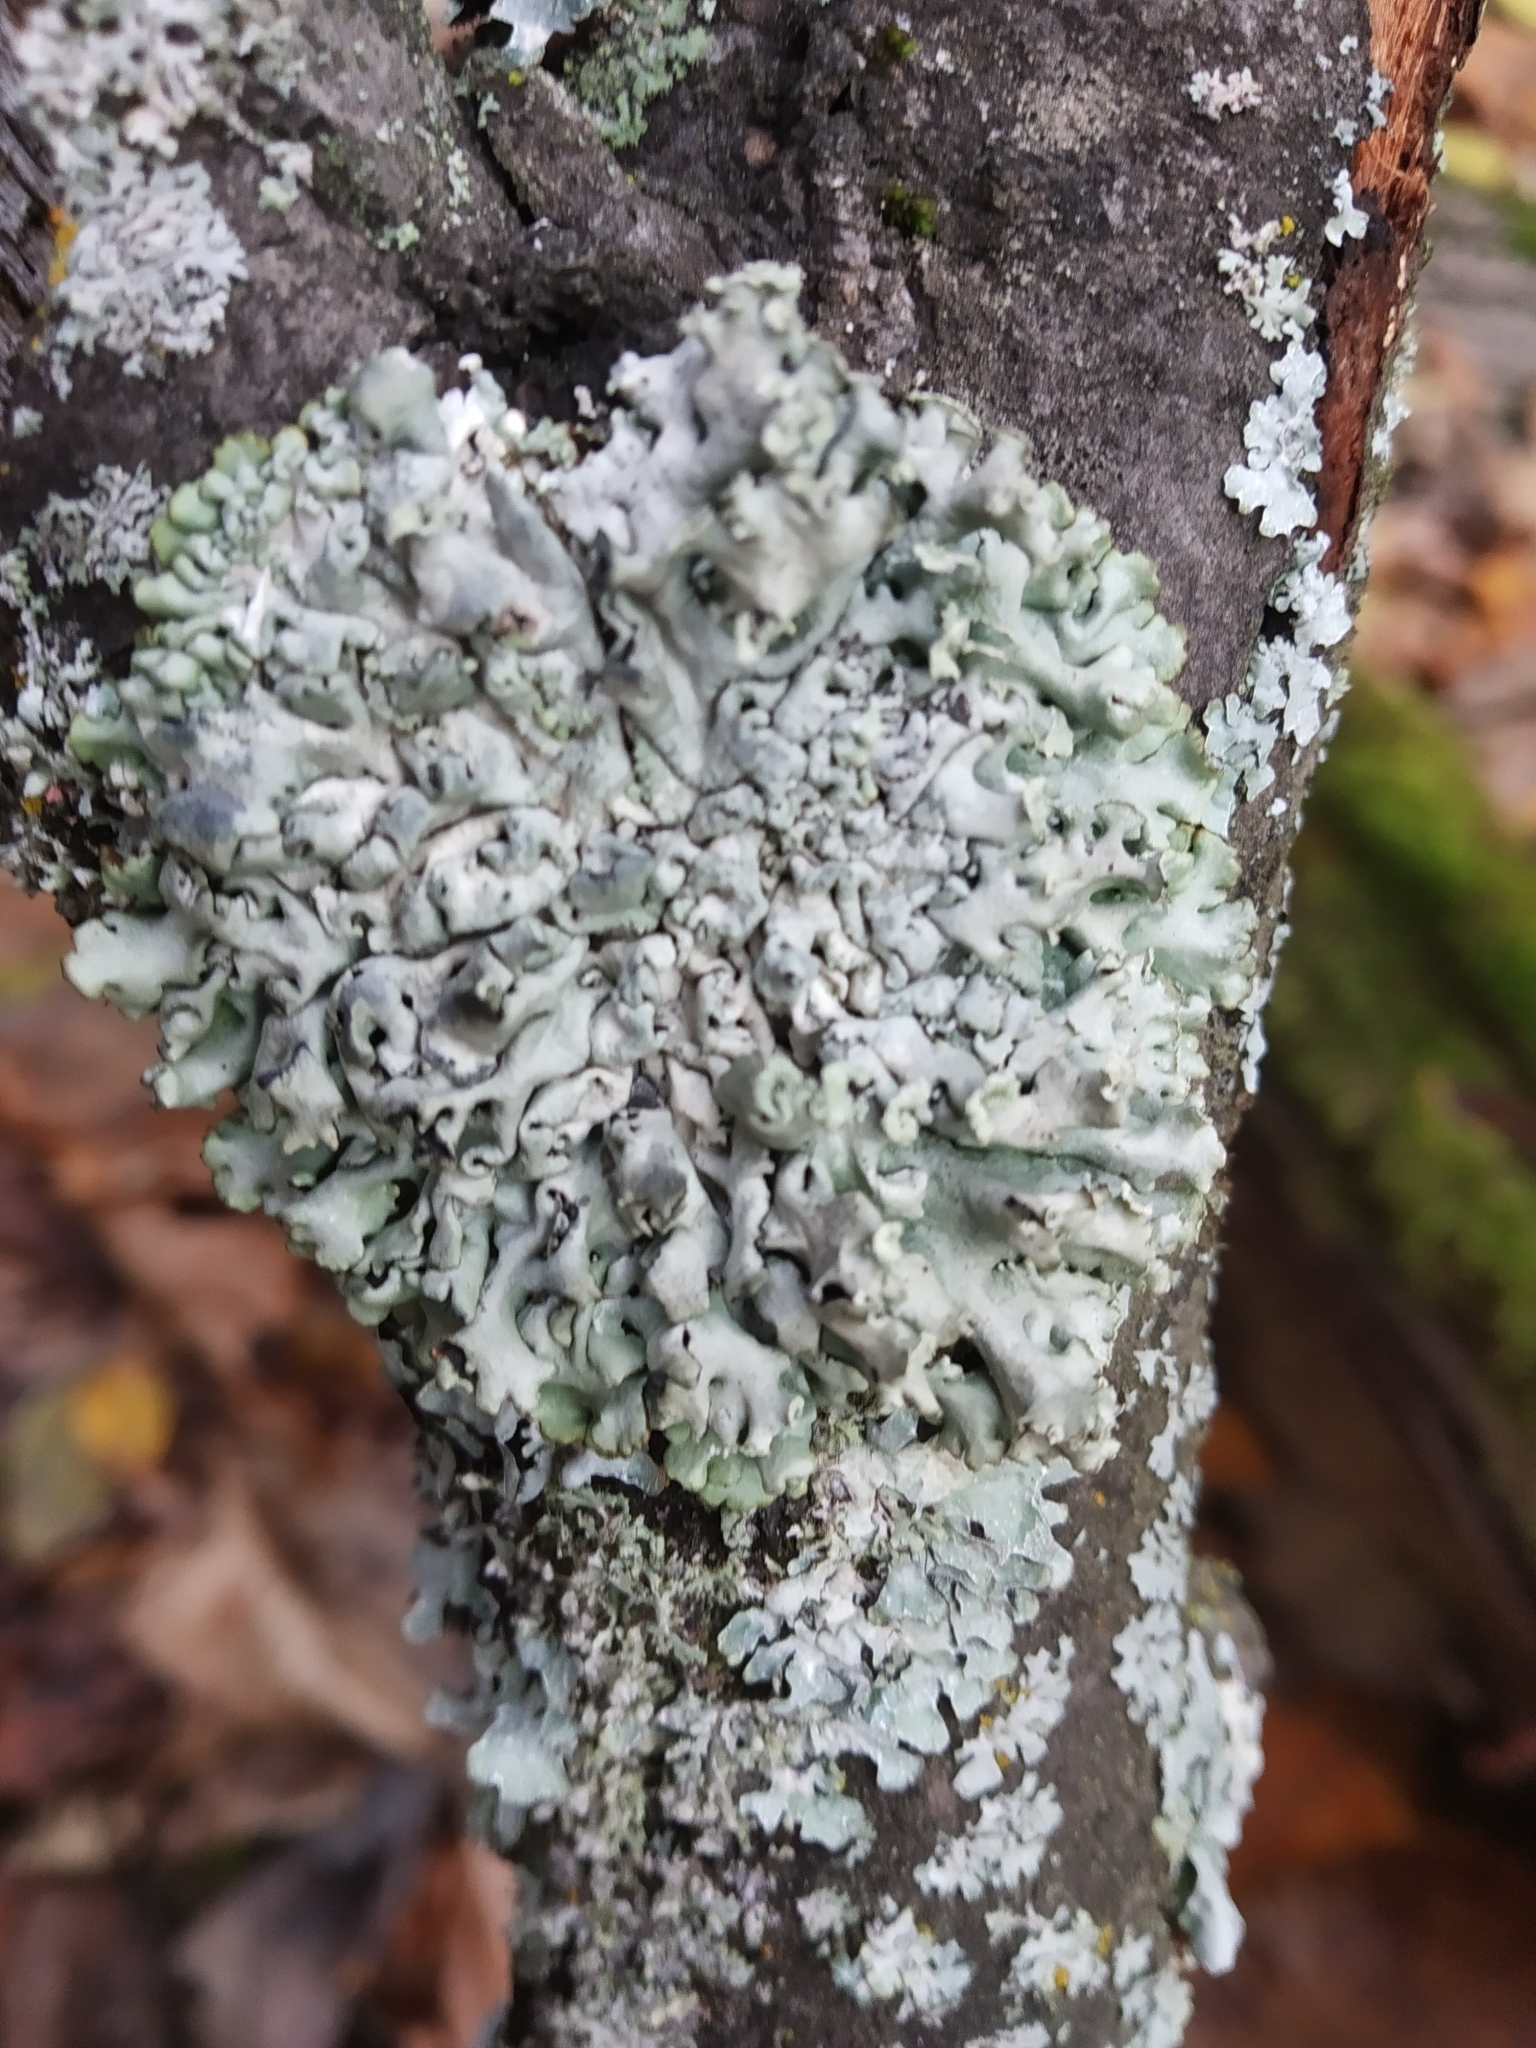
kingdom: Fungi
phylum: Ascomycota
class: Lecanoromycetes
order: Lecanorales
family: Parmeliaceae
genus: Hypogymnia
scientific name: Hypogymnia physodes
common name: Dark crottle
